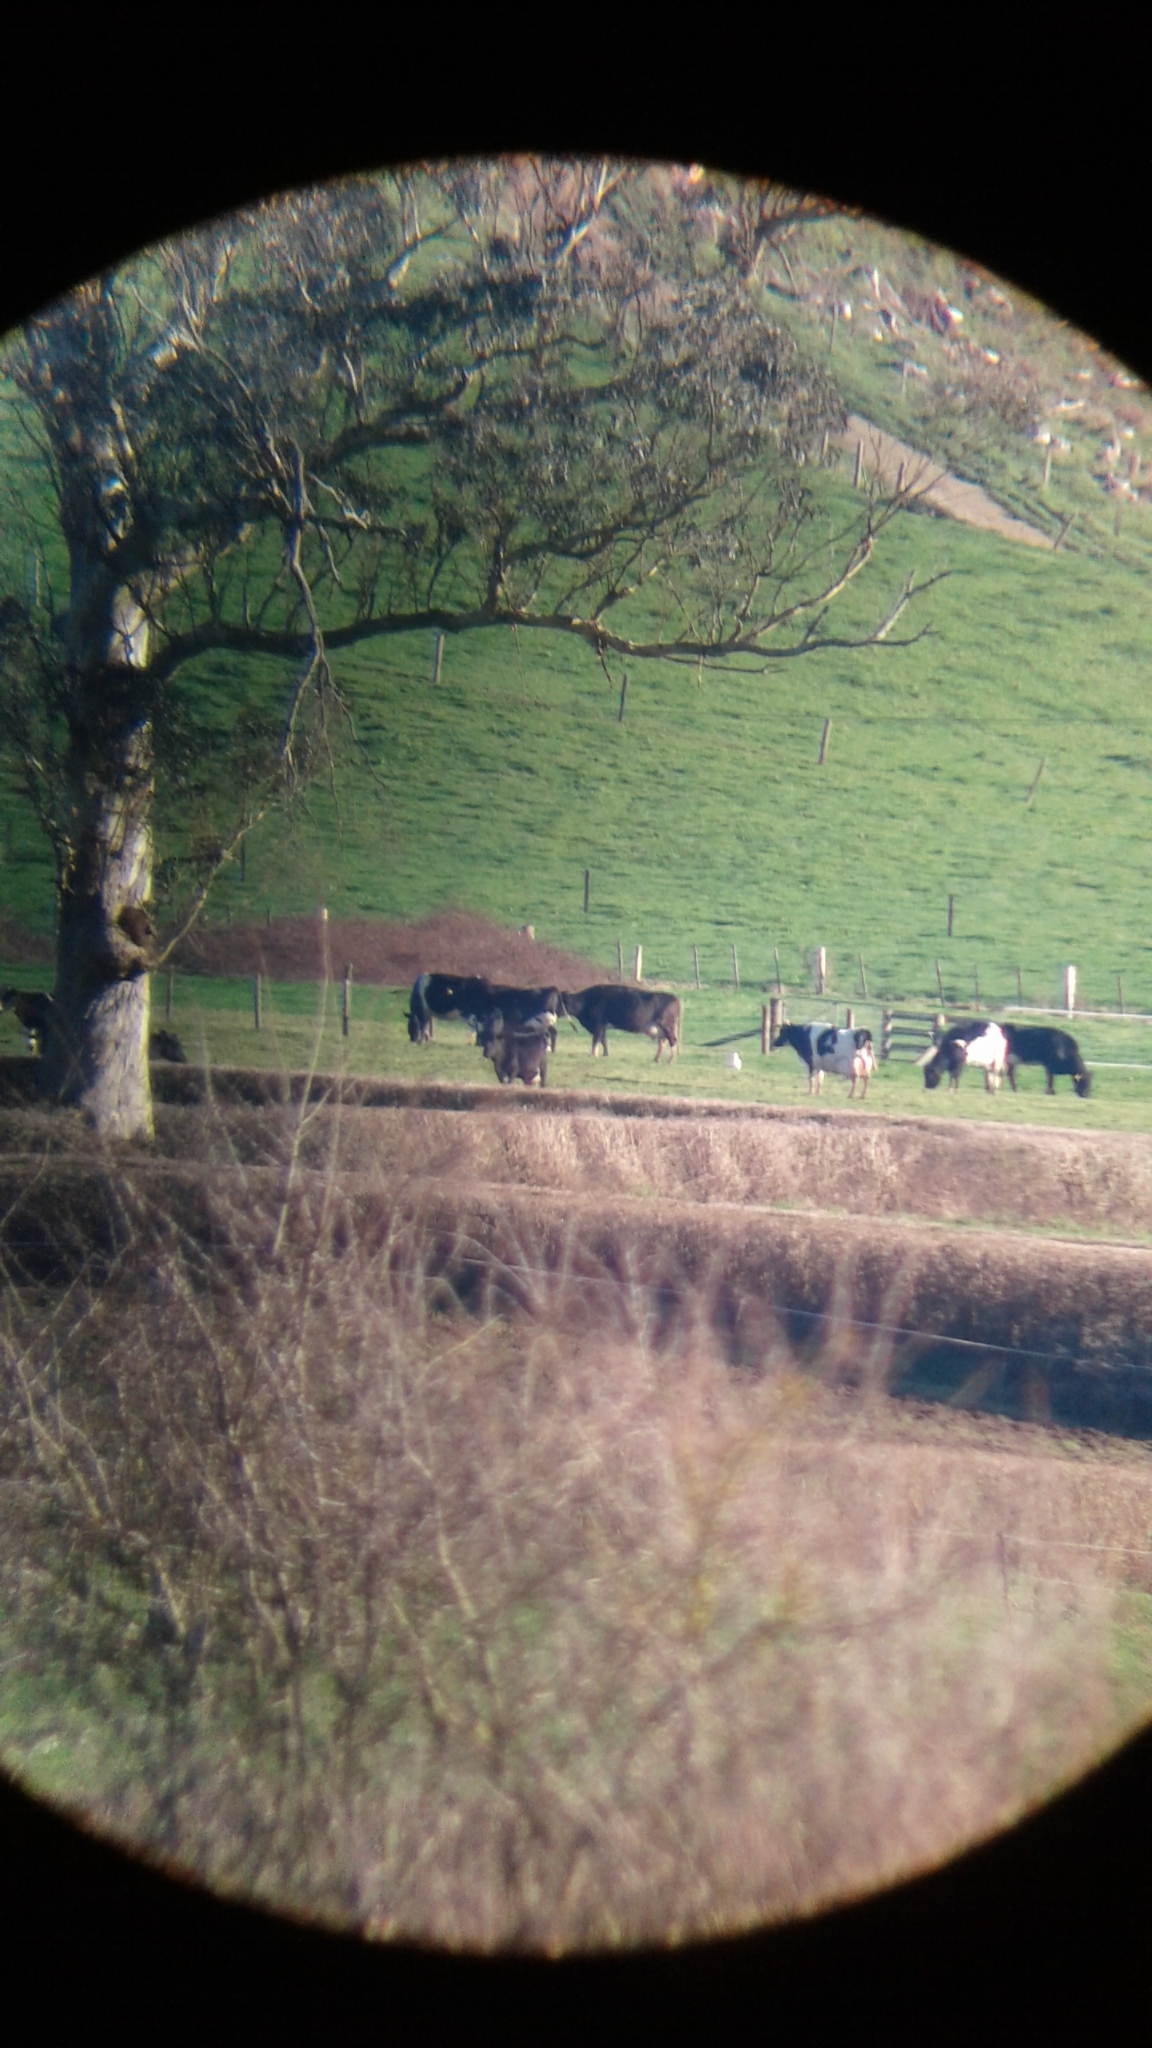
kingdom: Animalia
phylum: Chordata
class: Aves
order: Pelecaniformes
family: Ardeidae
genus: Bubulcus
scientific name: Bubulcus coromandus
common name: Eastern cattle egret
